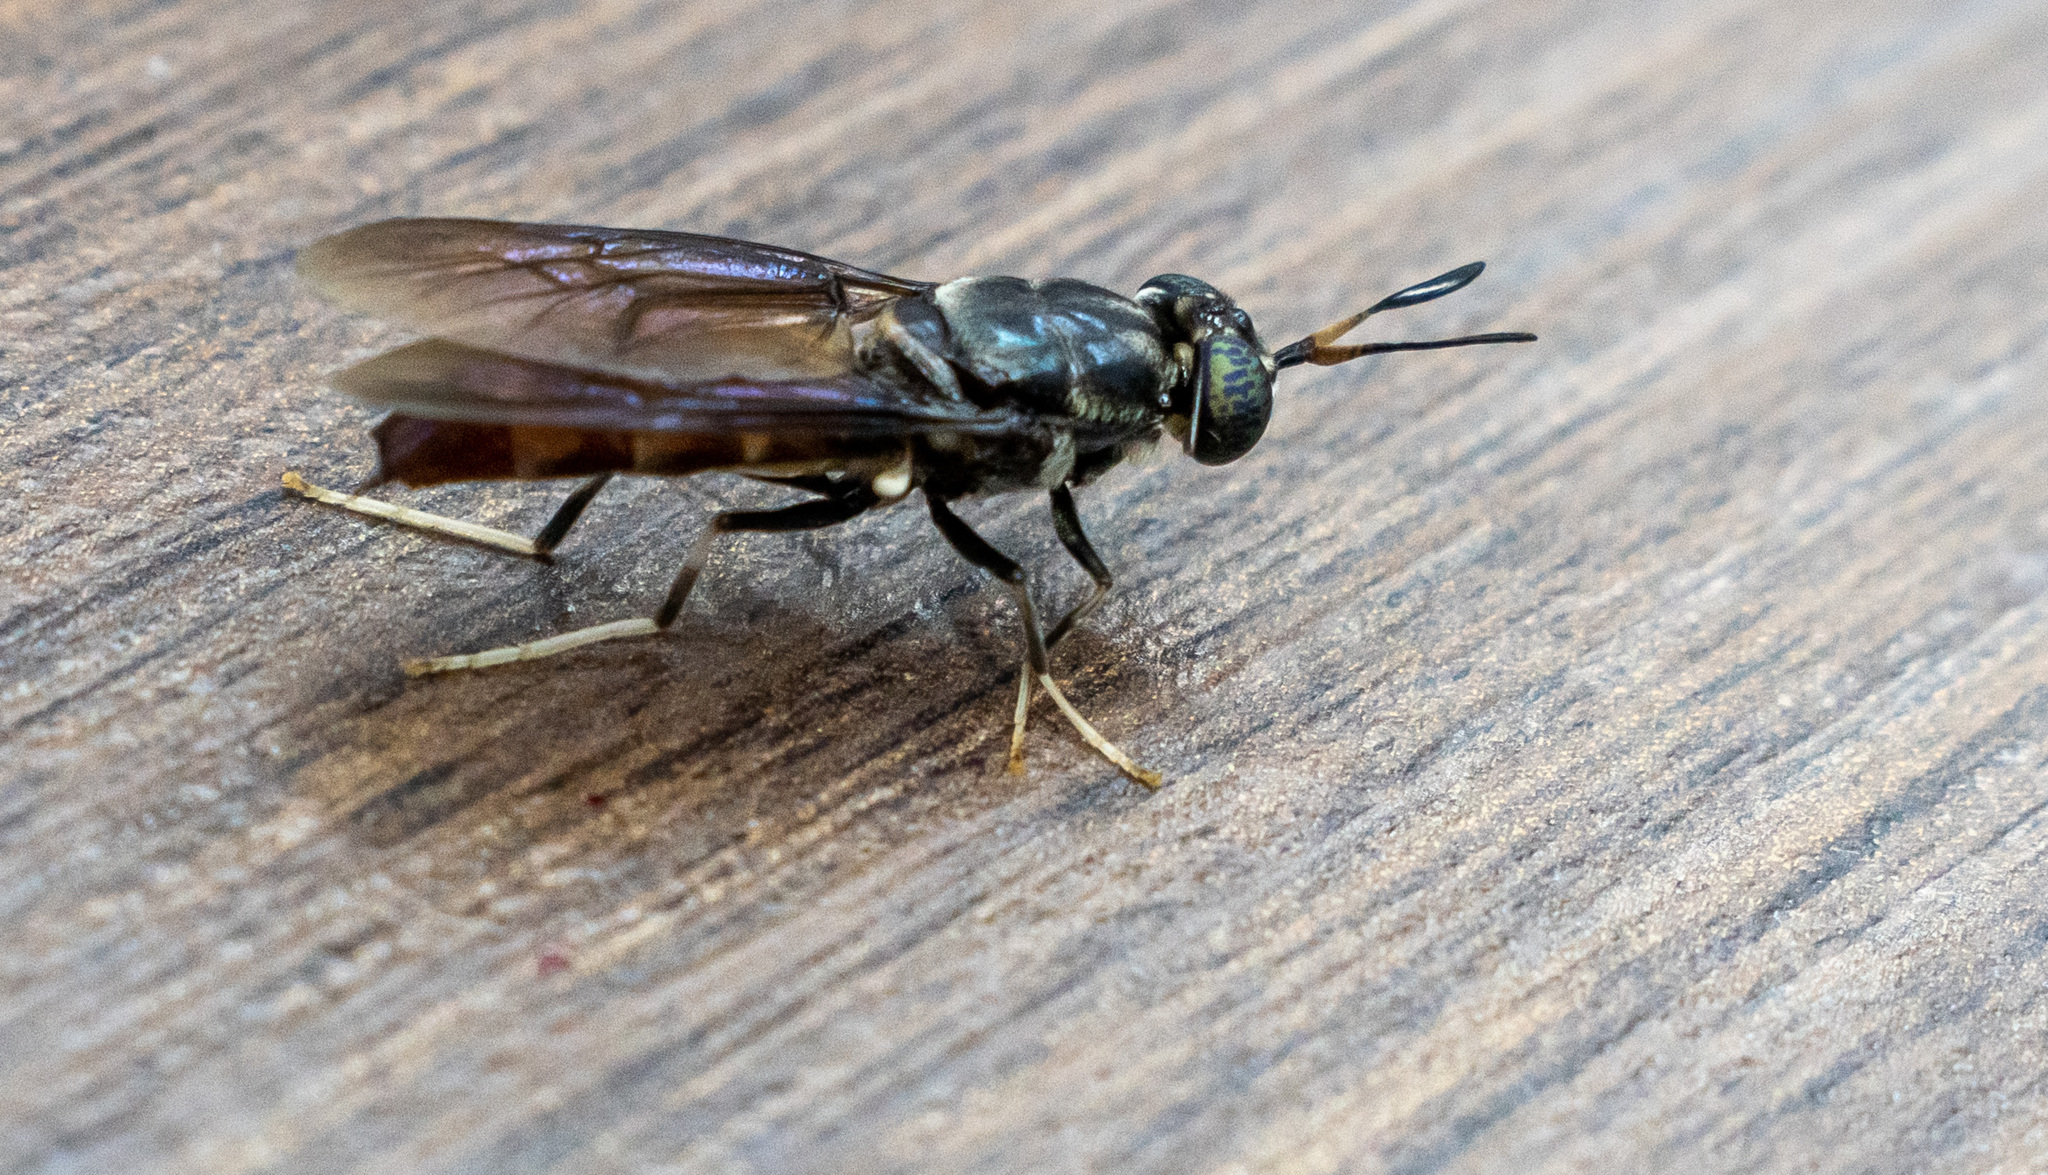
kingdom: Animalia
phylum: Arthropoda
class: Insecta
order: Diptera
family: Stratiomyidae
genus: Hermetia
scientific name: Hermetia illucens
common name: Black soldier fly
